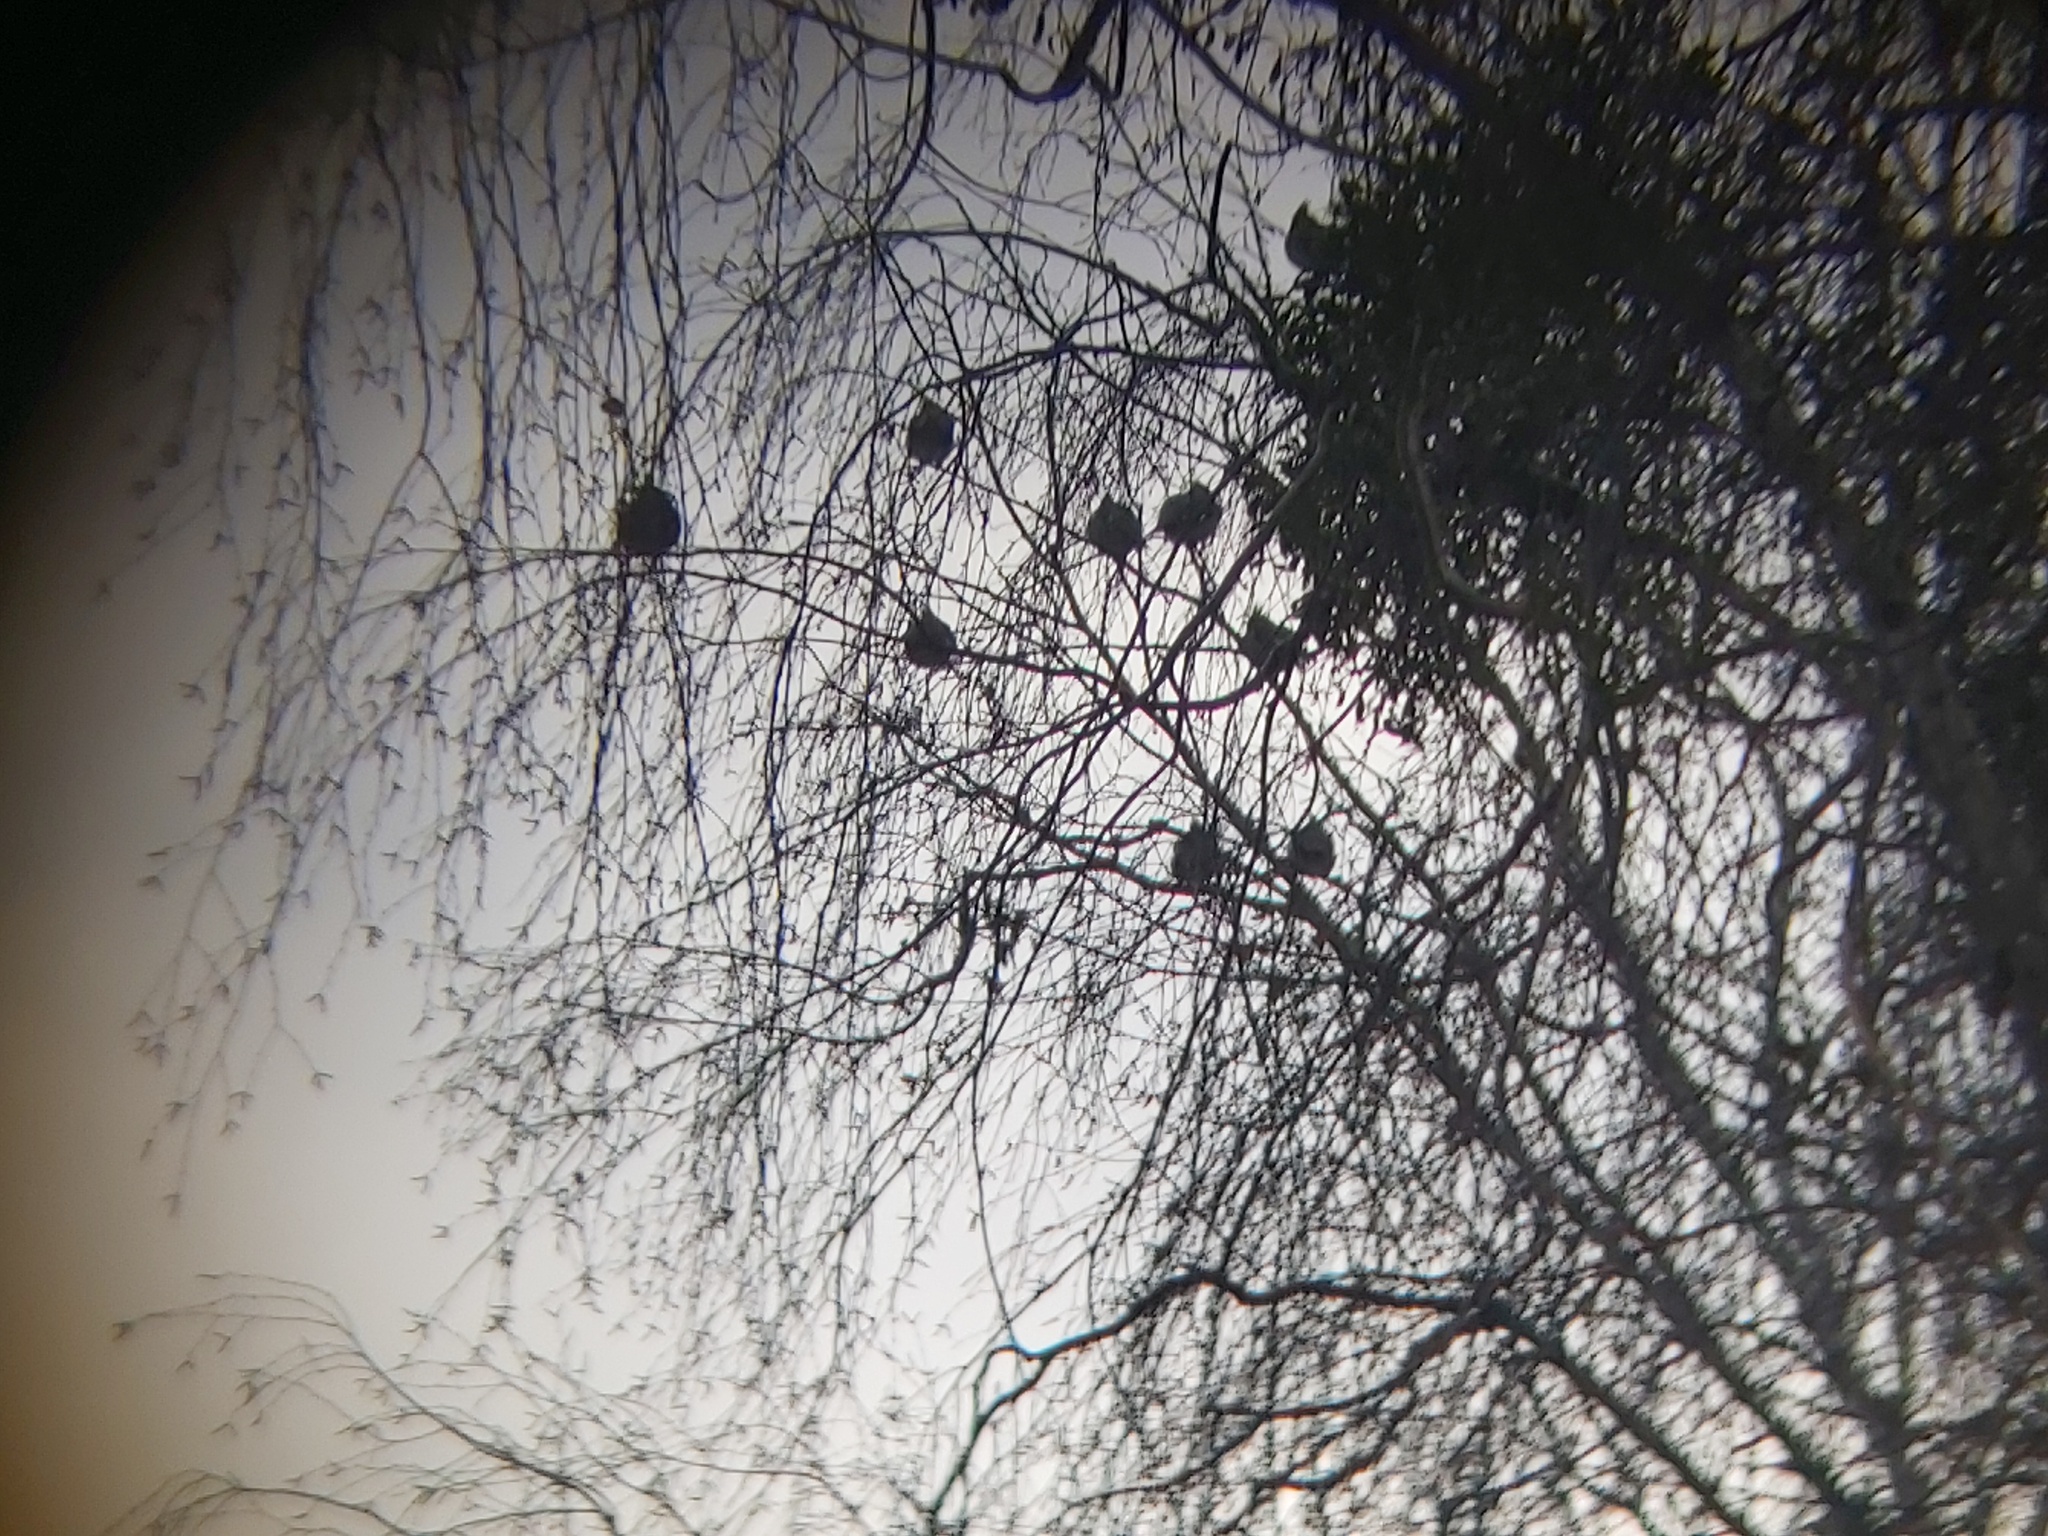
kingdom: Animalia
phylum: Chordata
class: Aves
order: Passeriformes
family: Bombycillidae
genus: Bombycilla
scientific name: Bombycilla garrulus
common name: Bohemian waxwing
